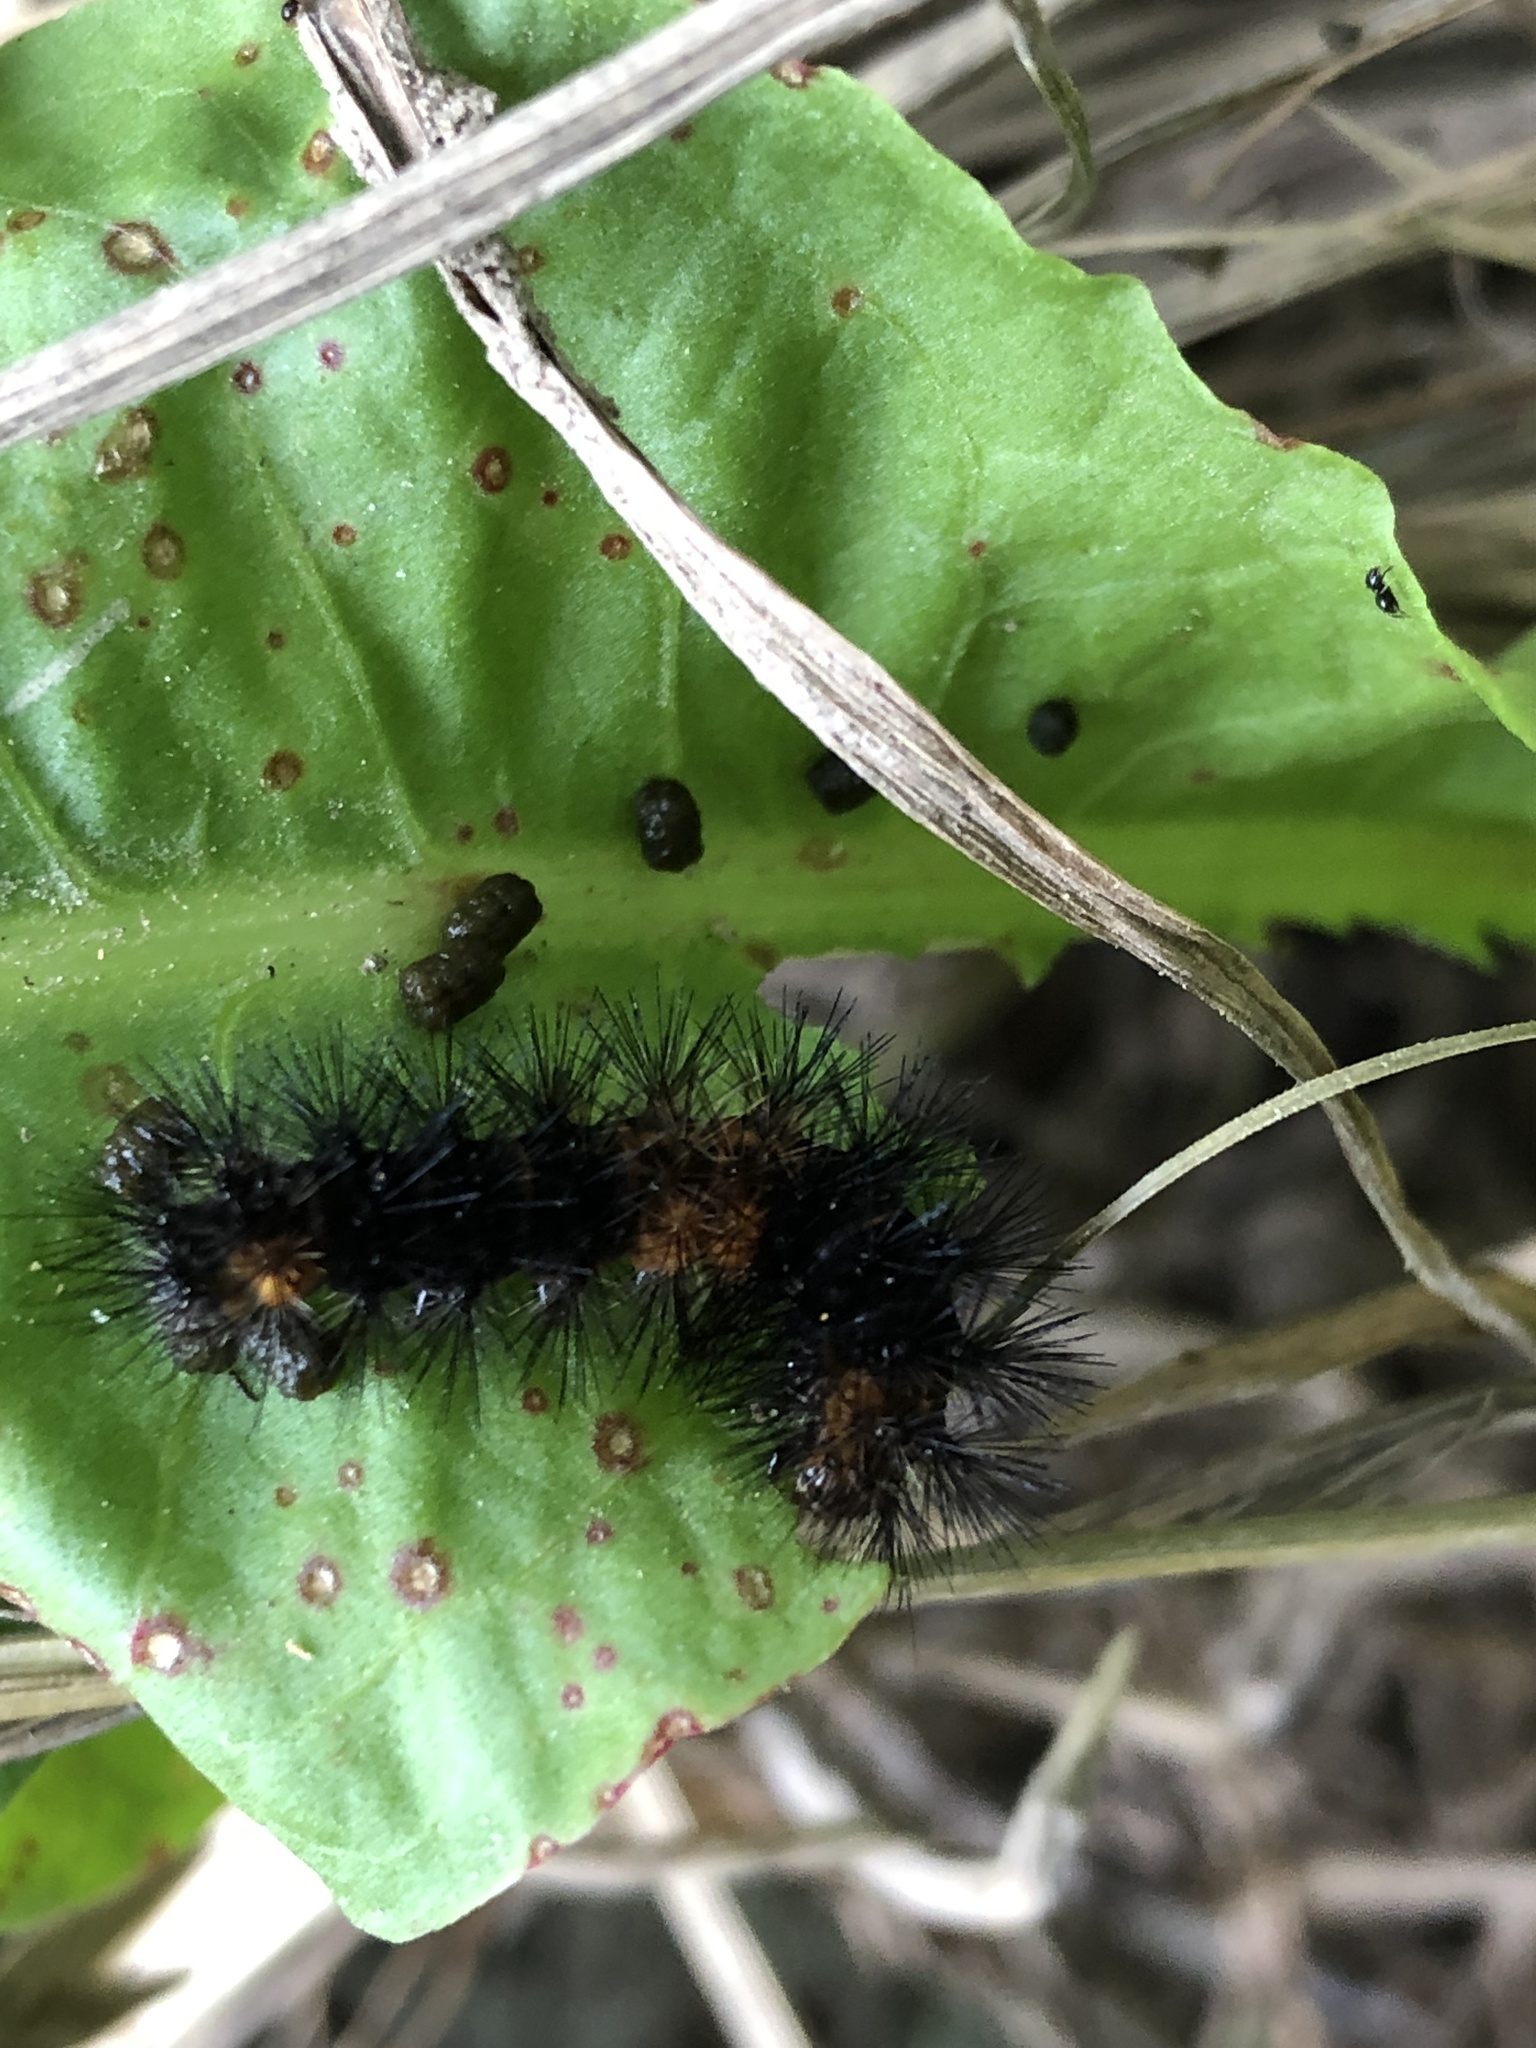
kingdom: Animalia
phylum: Arthropoda
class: Insecta
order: Lepidoptera
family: Erebidae
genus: Hypercompe
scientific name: Hypercompe scribonia
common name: Giant leopard moth
